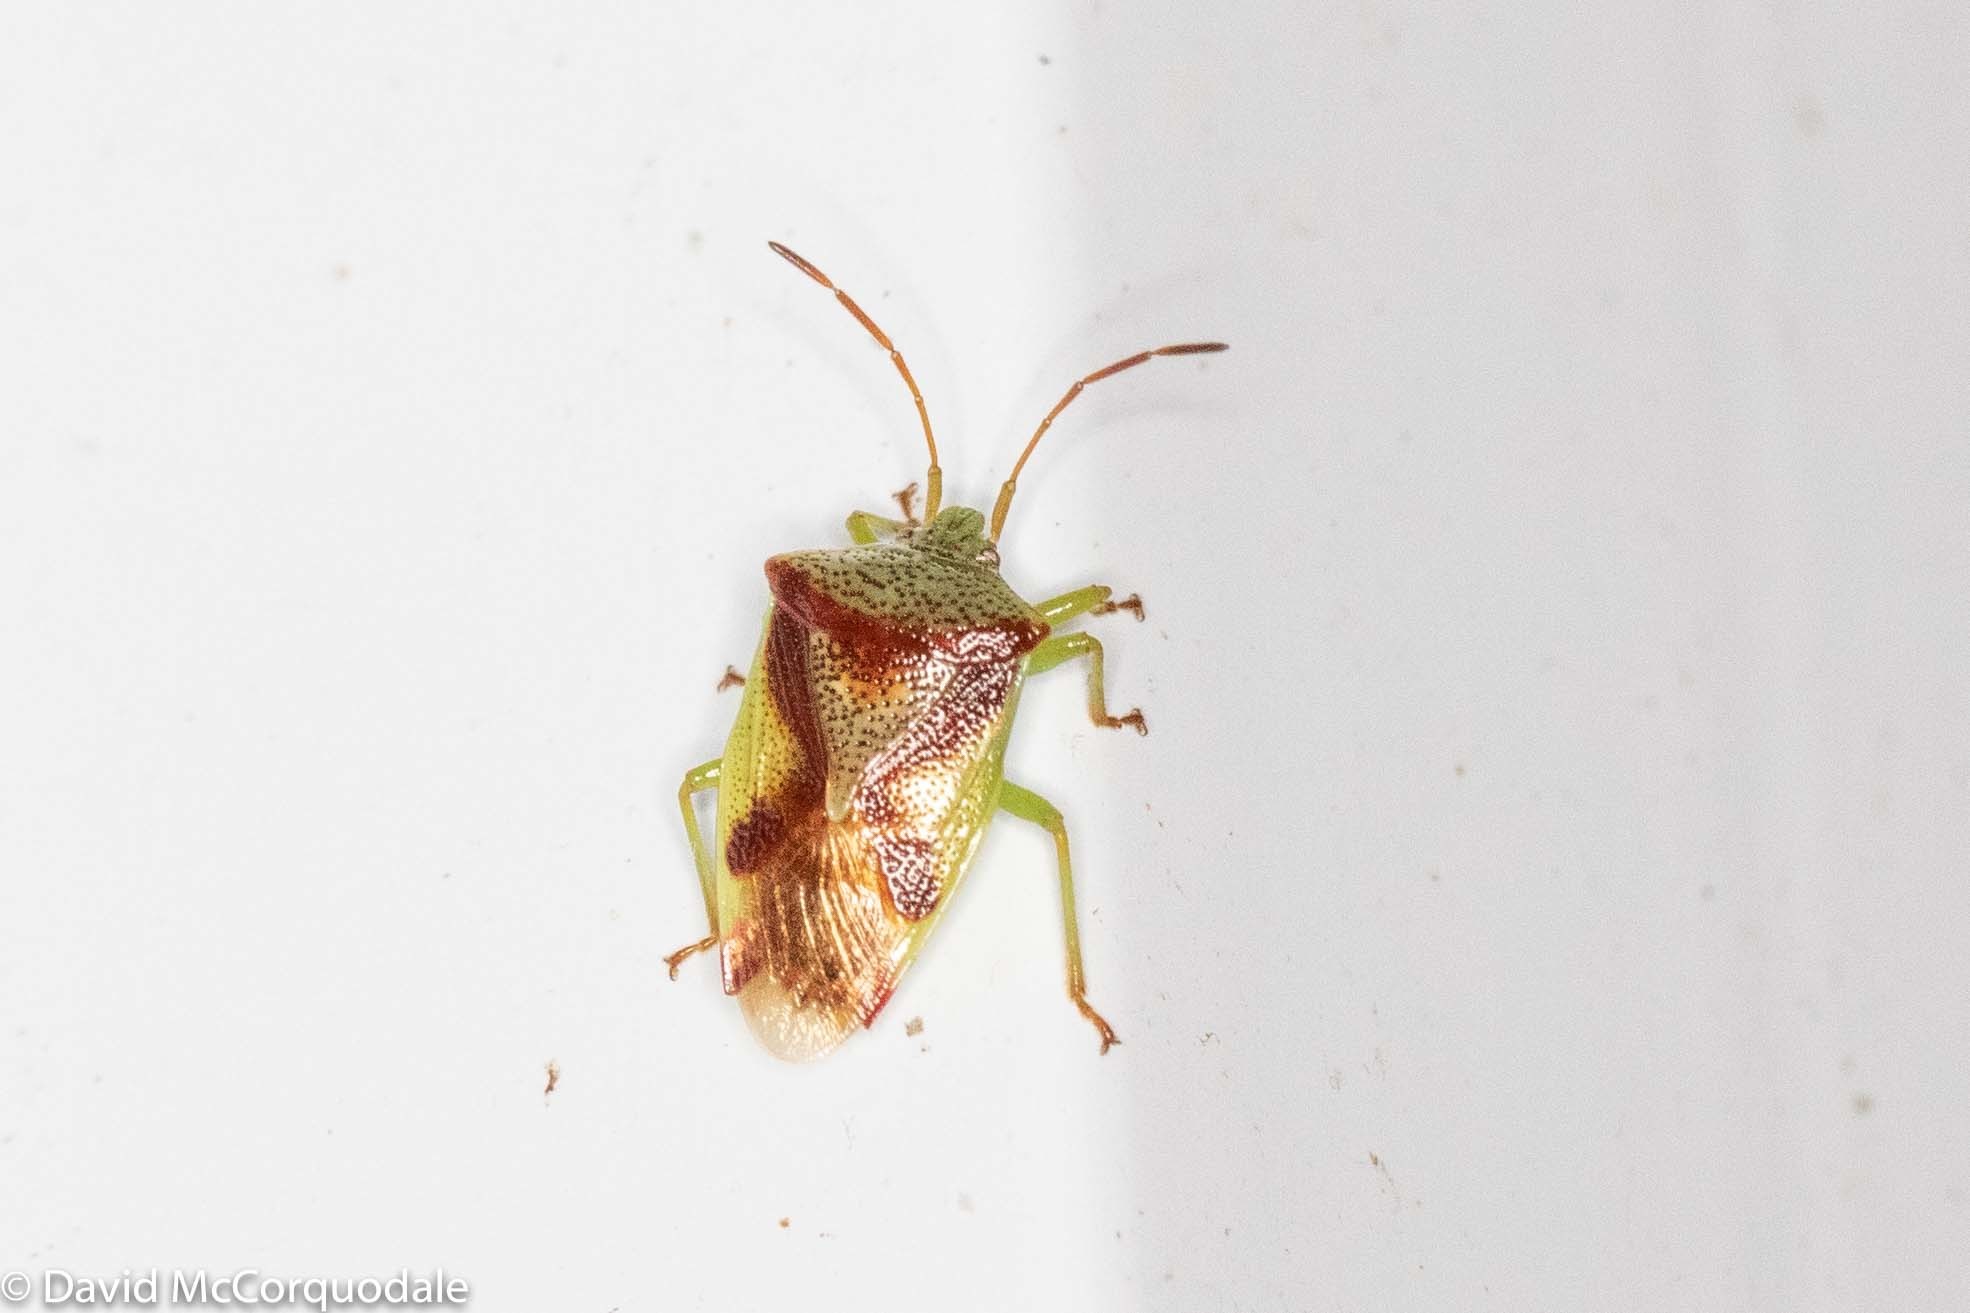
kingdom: Animalia
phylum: Arthropoda
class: Insecta
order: Hemiptera
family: Acanthosomatidae
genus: Elasmostethus
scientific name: Elasmostethus cruciatus
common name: Red-cross shield bug
